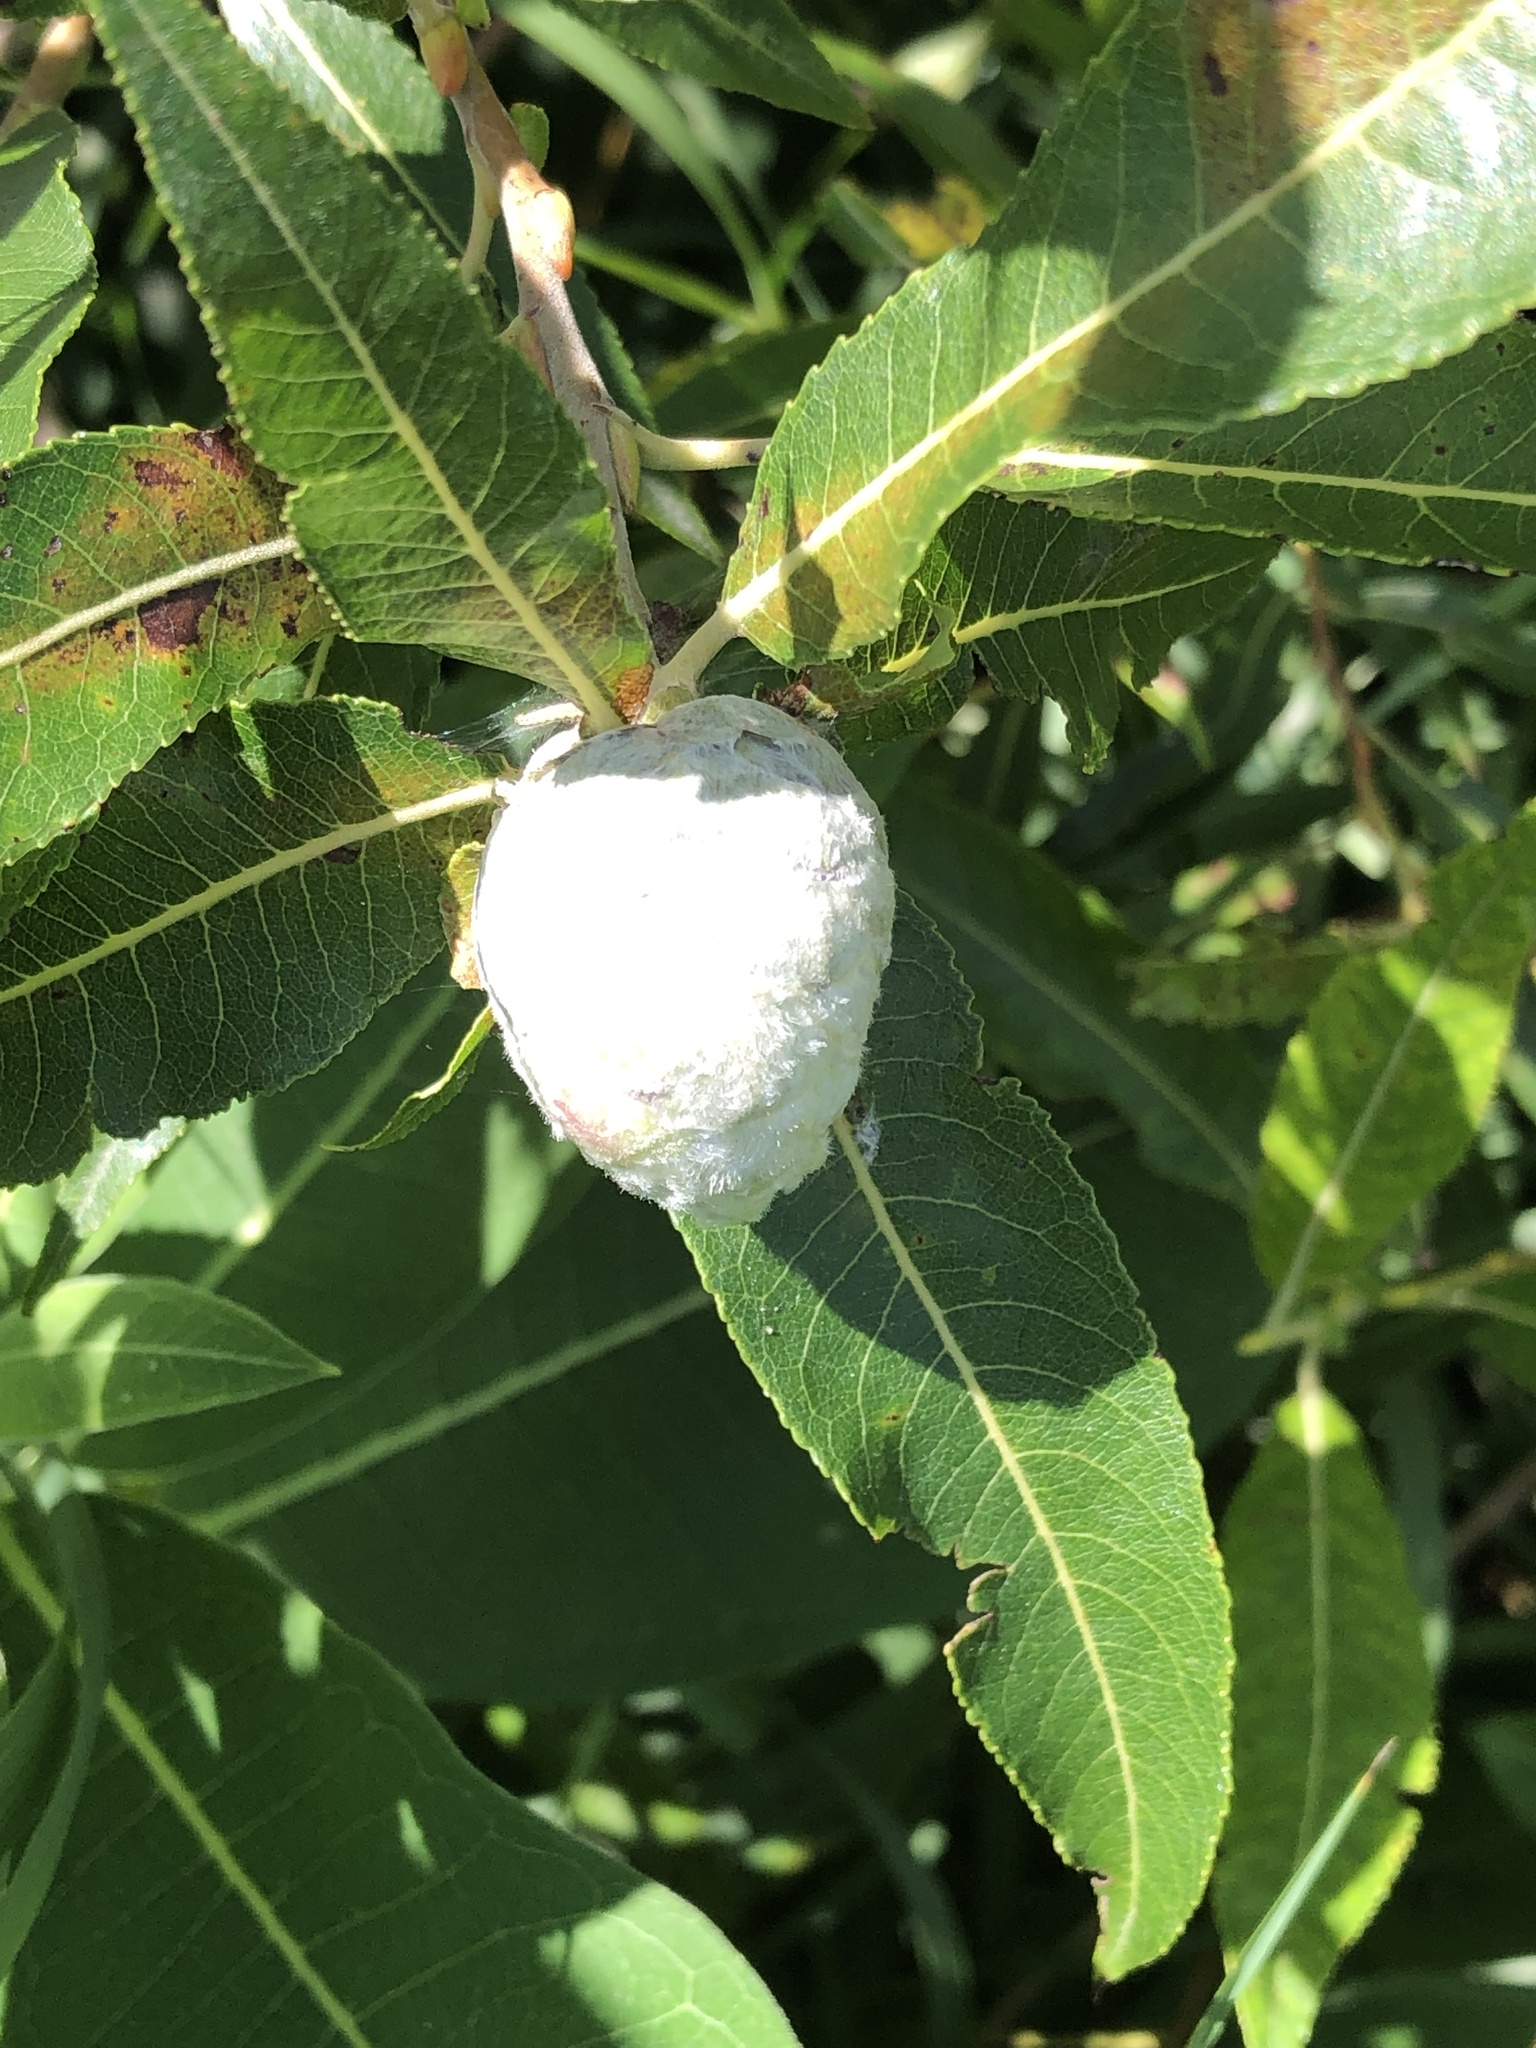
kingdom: Animalia
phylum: Arthropoda
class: Insecta
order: Diptera
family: Cecidomyiidae
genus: Rabdophaga
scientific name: Rabdophaga strobiloides
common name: Willow pinecone gall midge
